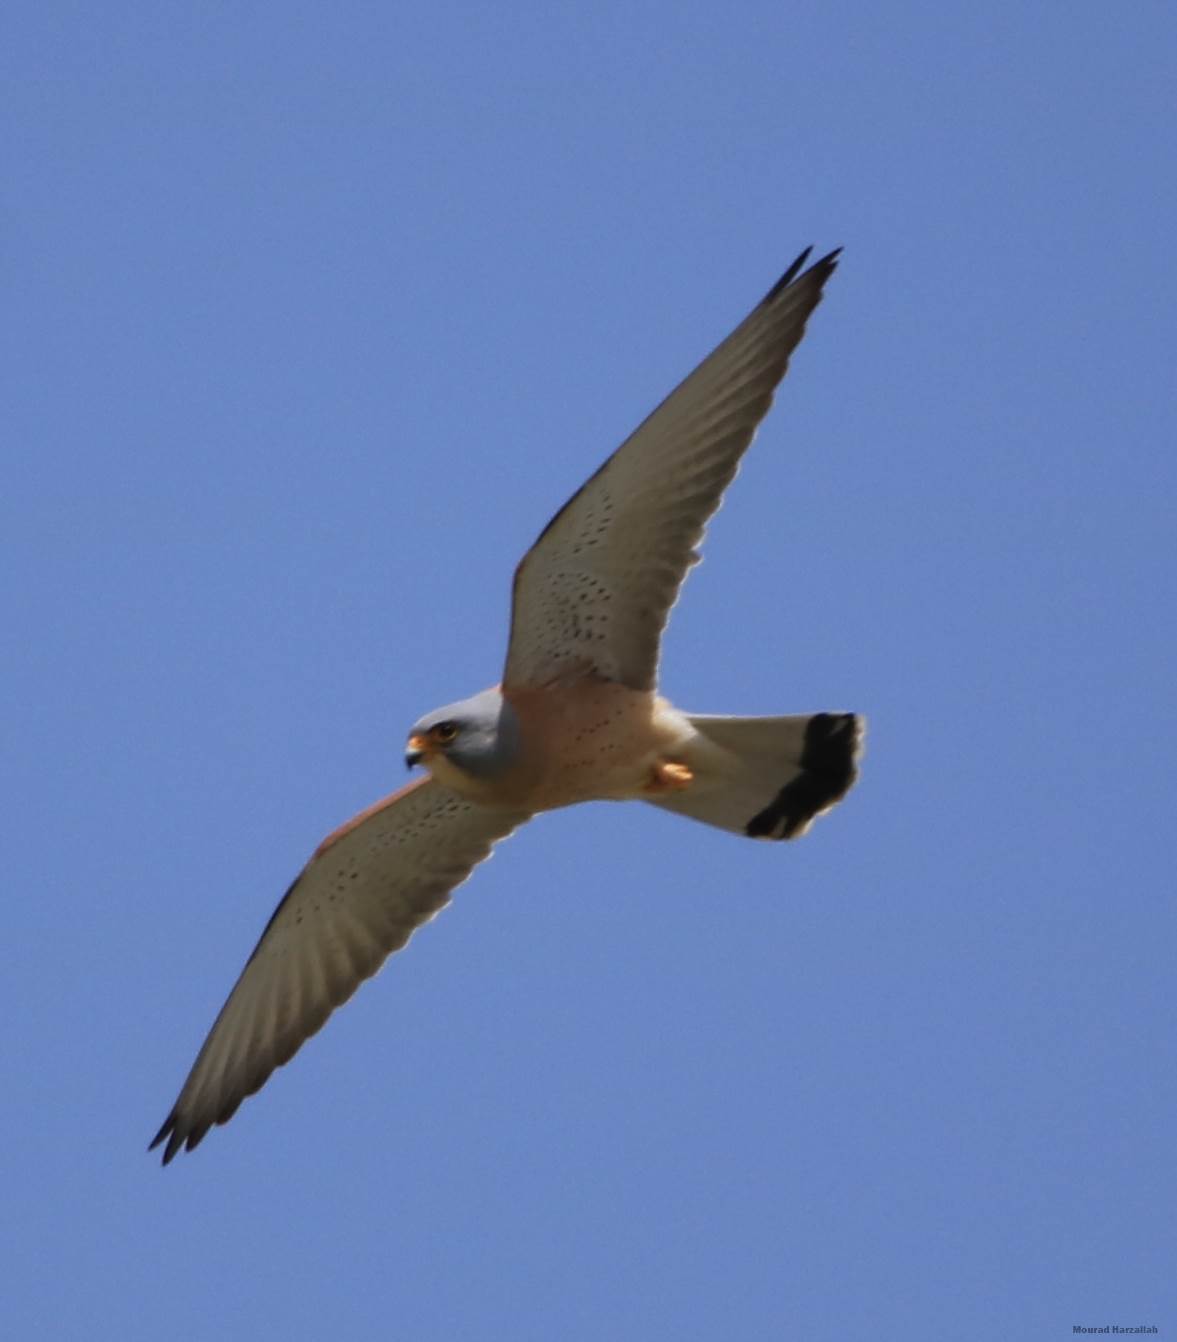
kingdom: Animalia
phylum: Chordata
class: Aves
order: Falconiformes
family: Falconidae
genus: Falco
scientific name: Falco naumanni
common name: Lesser kestrel
